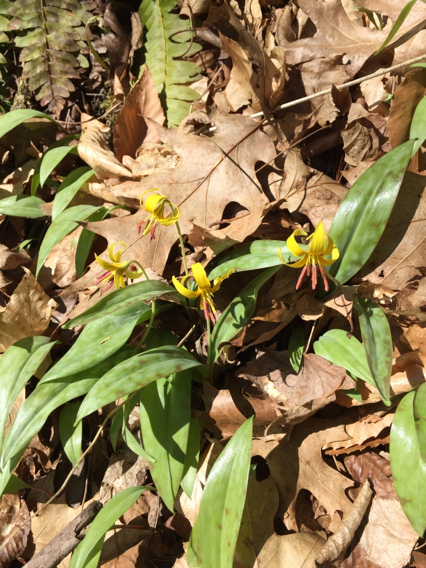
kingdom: Plantae
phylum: Tracheophyta
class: Liliopsida
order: Liliales
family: Liliaceae
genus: Erythronium
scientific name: Erythronium americanum
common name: Yellow adder's-tongue
